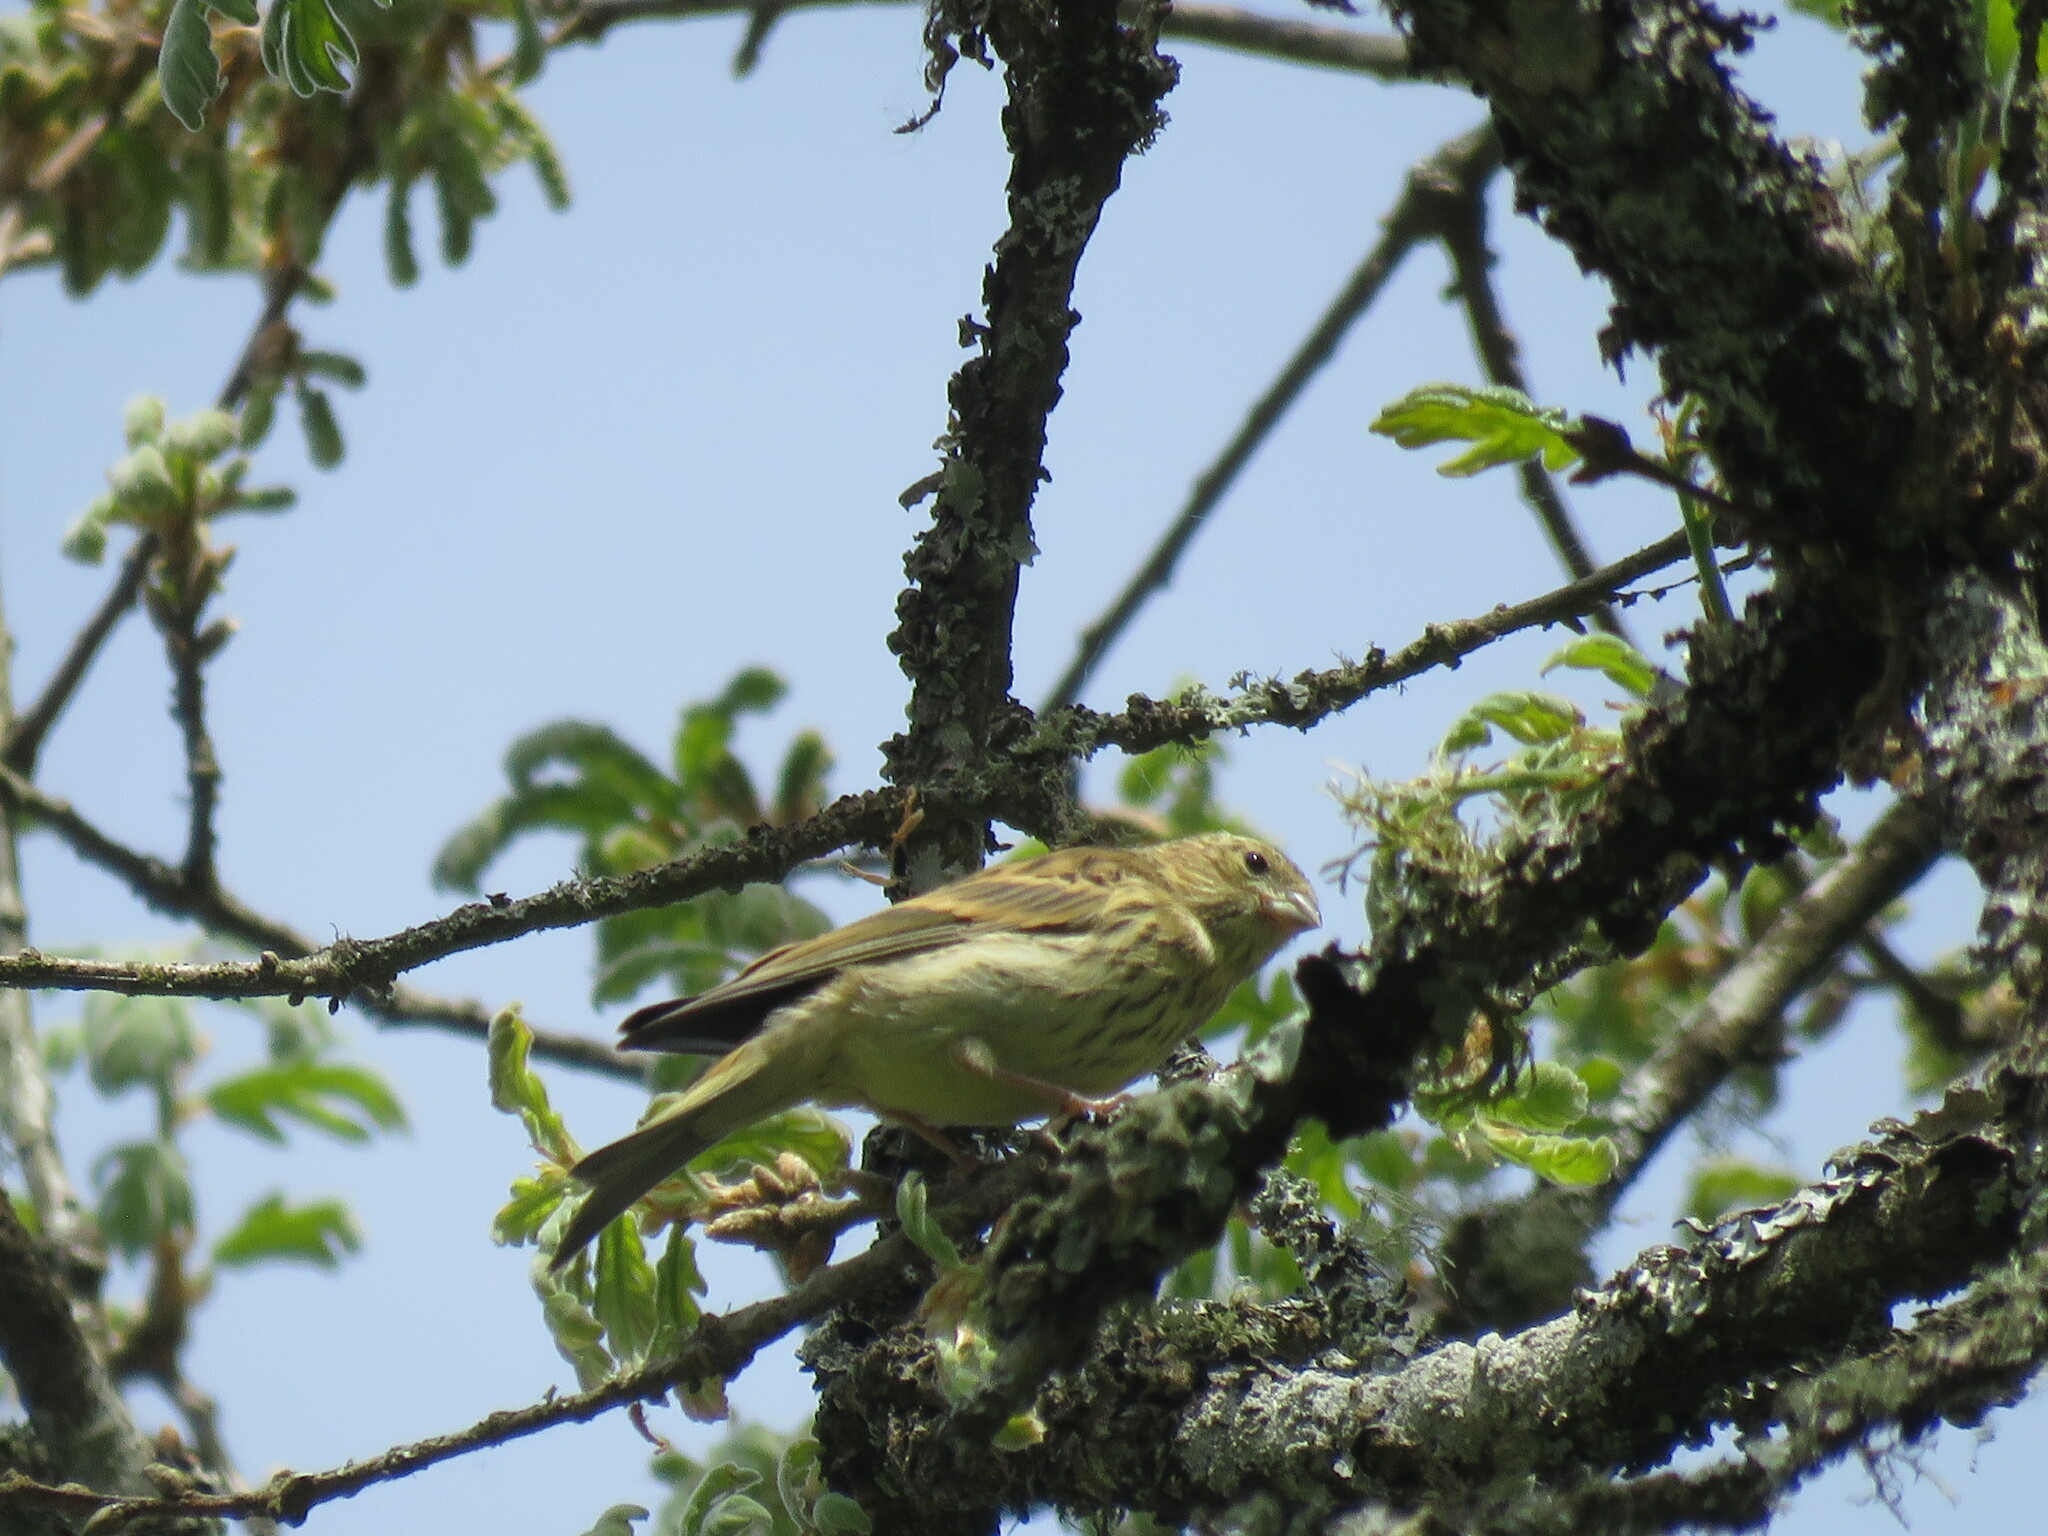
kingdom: Animalia
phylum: Chordata
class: Aves
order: Passeriformes
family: Fringillidae
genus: Serinus
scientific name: Serinus serinus
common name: European serin
